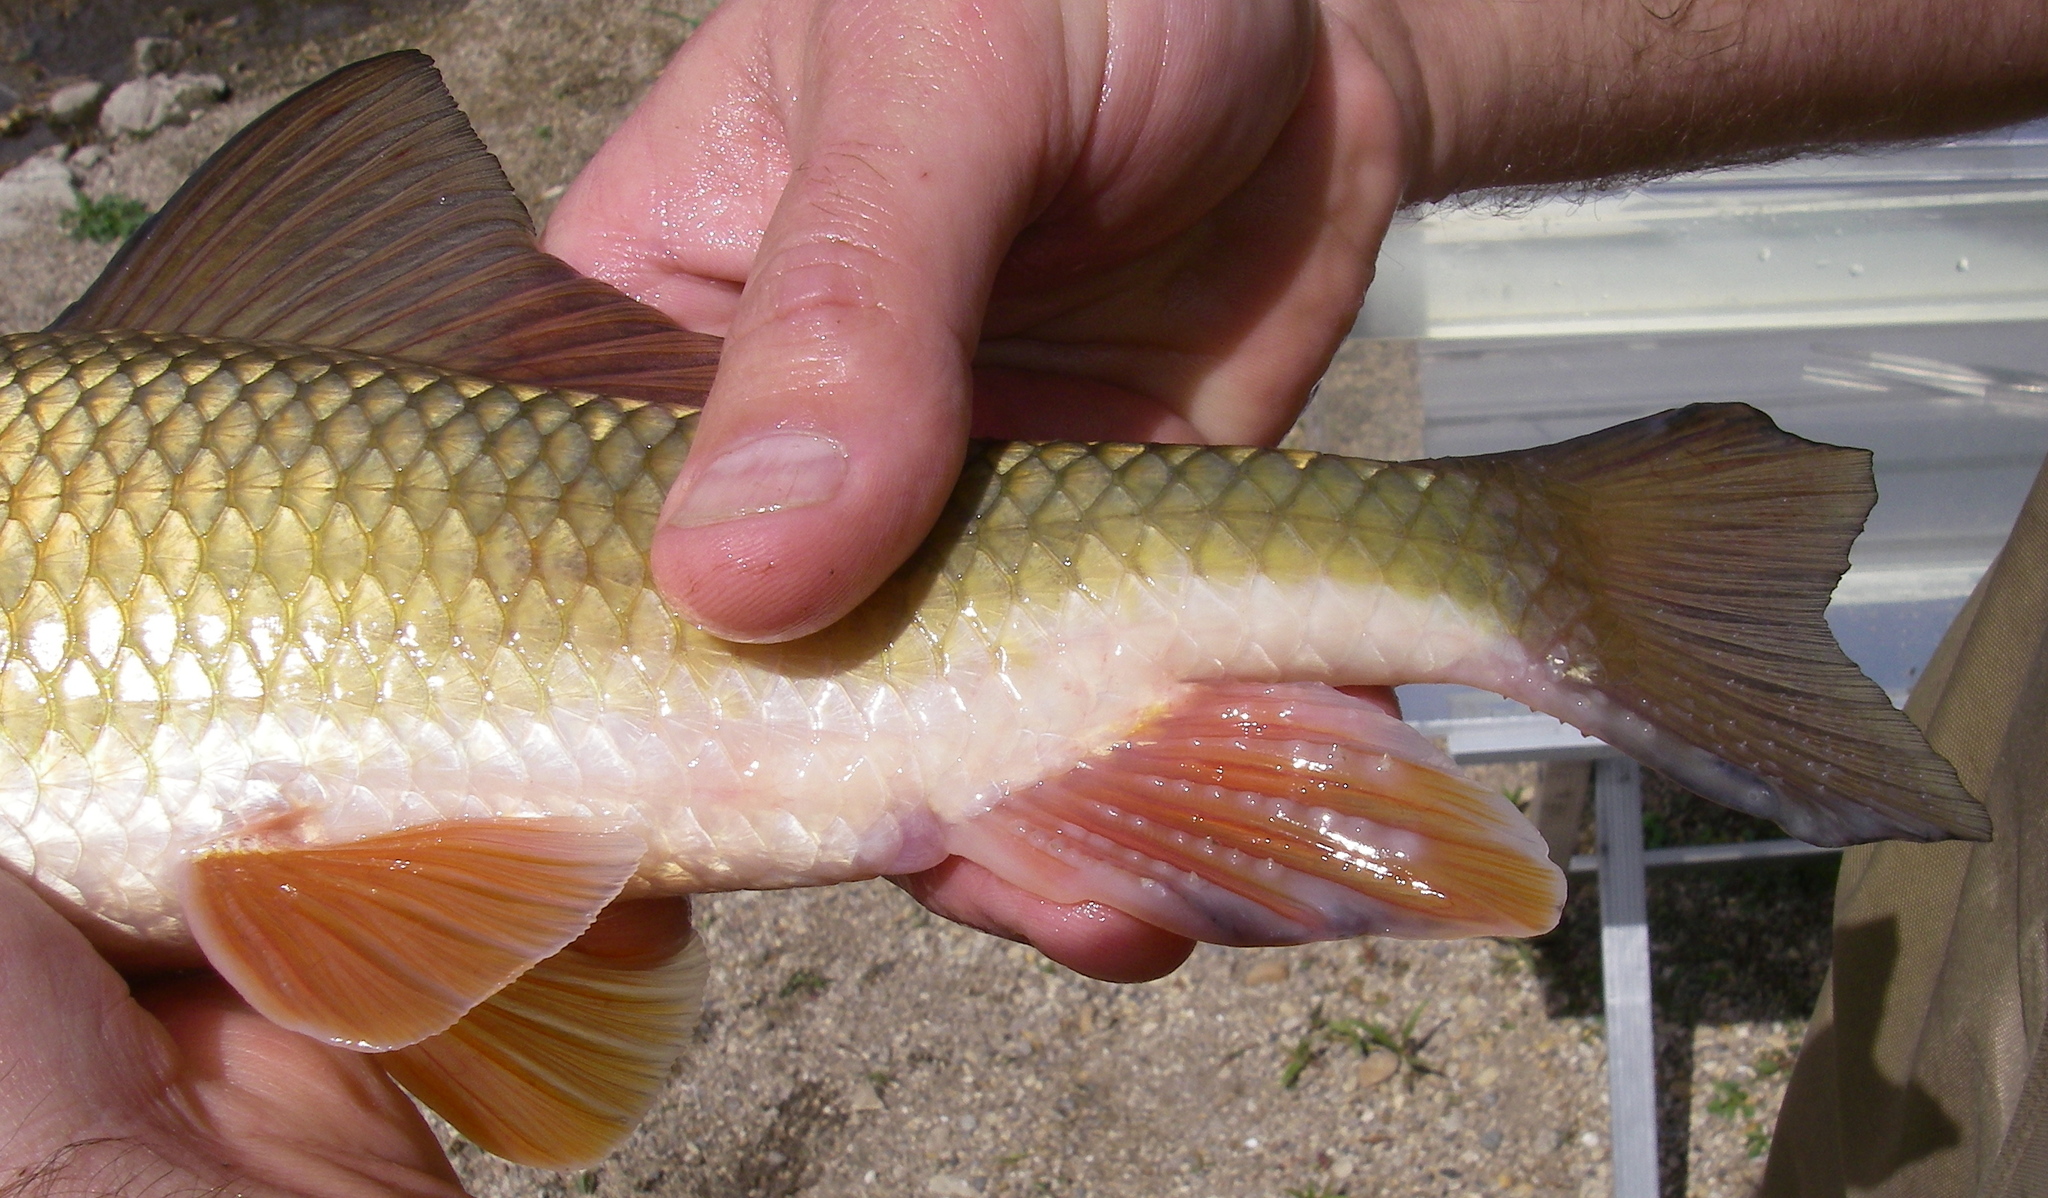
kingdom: Animalia
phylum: Chordata
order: Cypriniformes
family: Catostomidae
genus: Moxostoma
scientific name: Moxostoma erythrurum
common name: Golden redhorse
